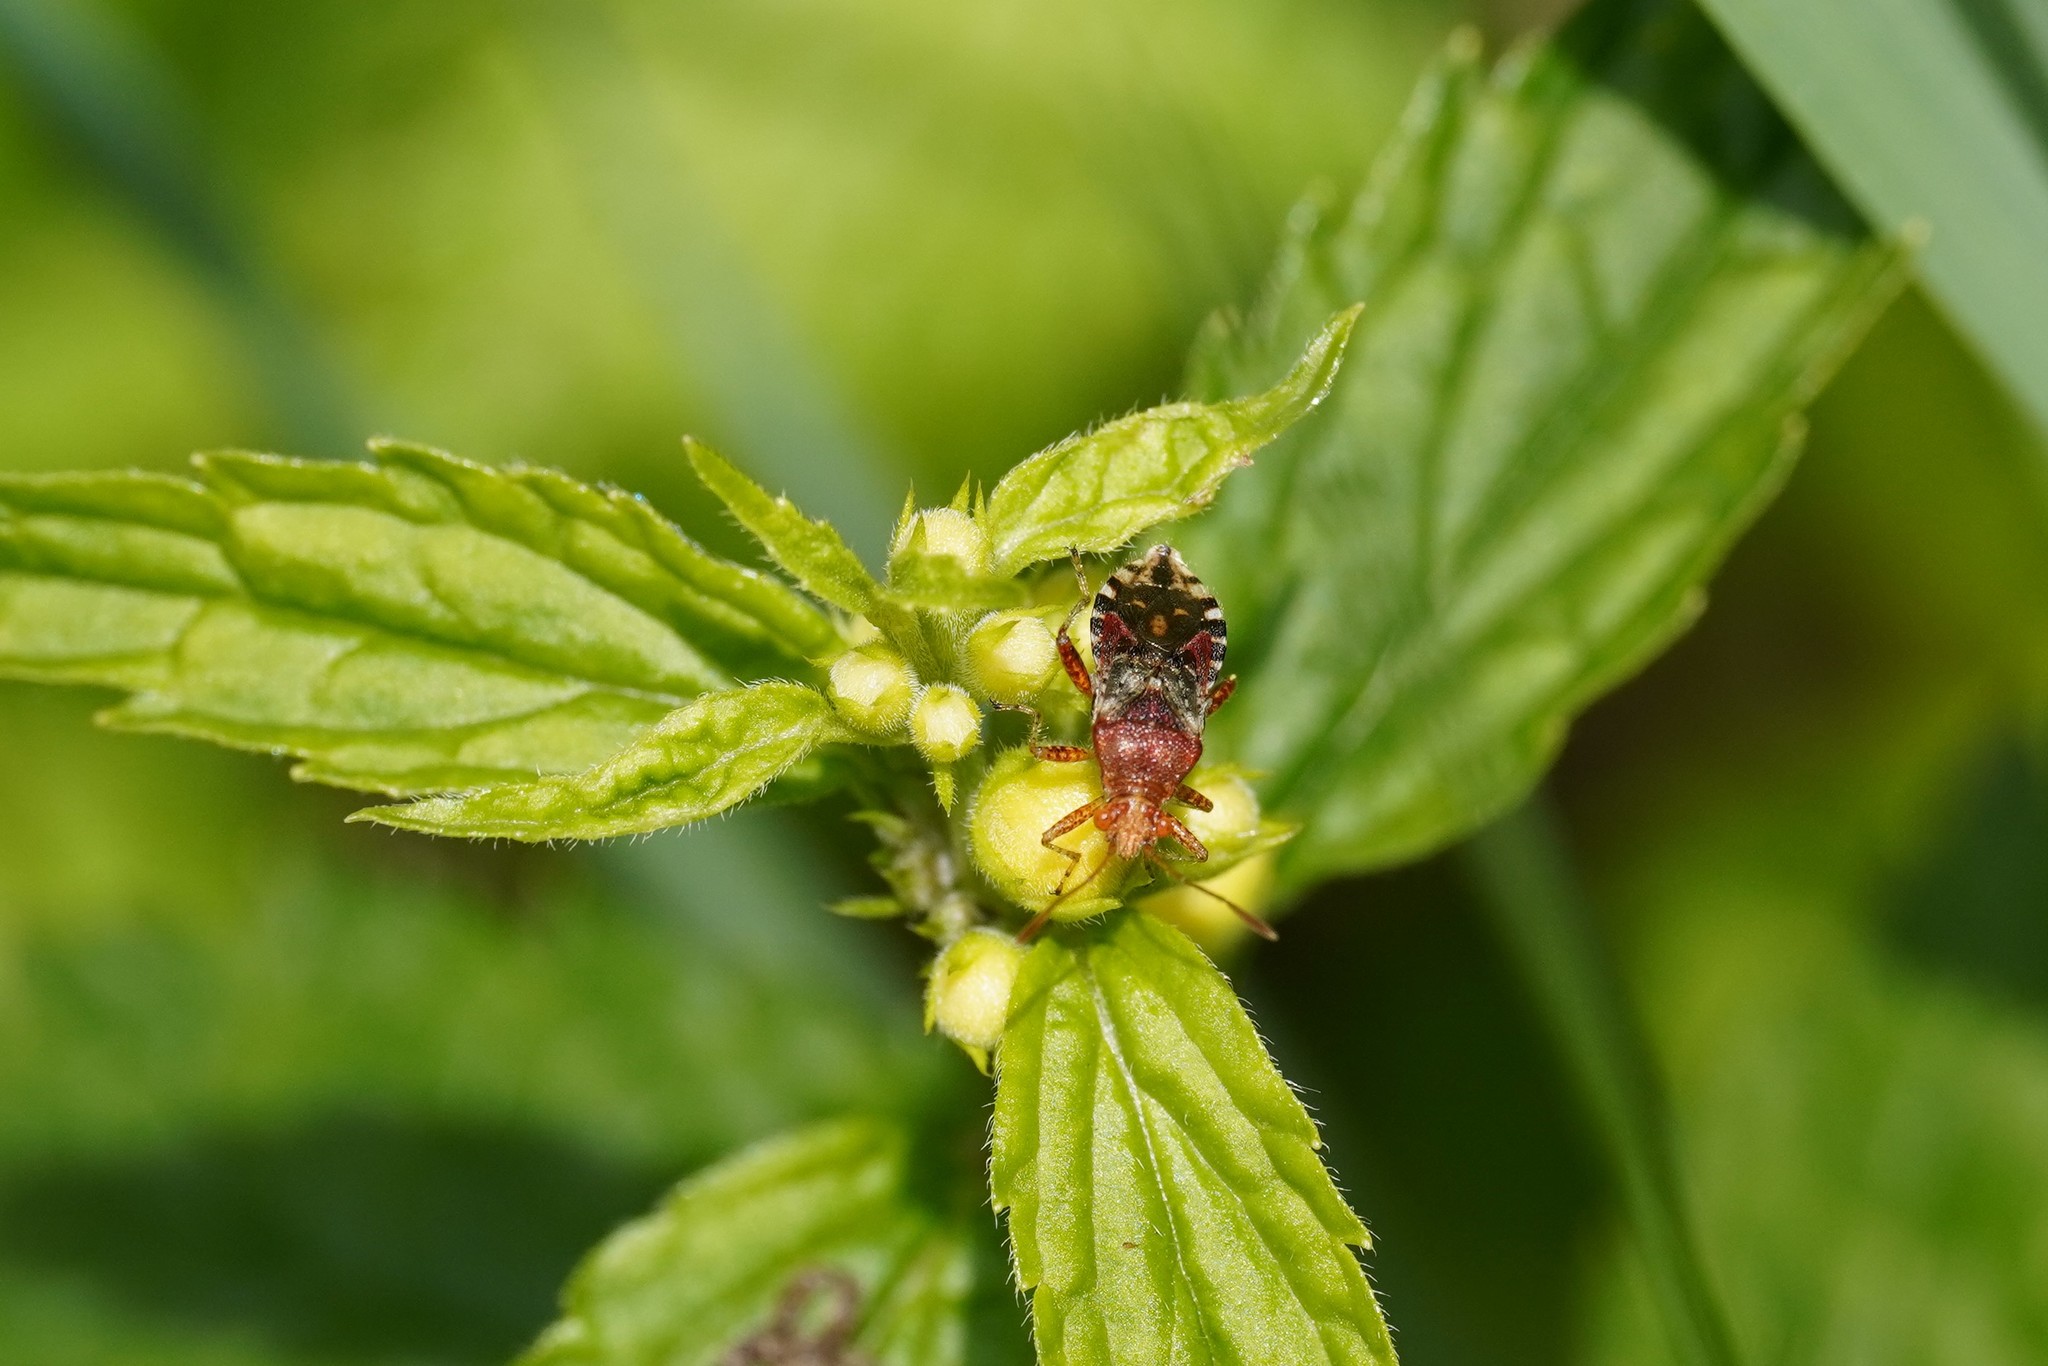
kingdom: Animalia
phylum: Arthropoda
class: Insecta
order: Hemiptera
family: Rhopalidae
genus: Rhopalus
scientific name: Rhopalus subrufus
